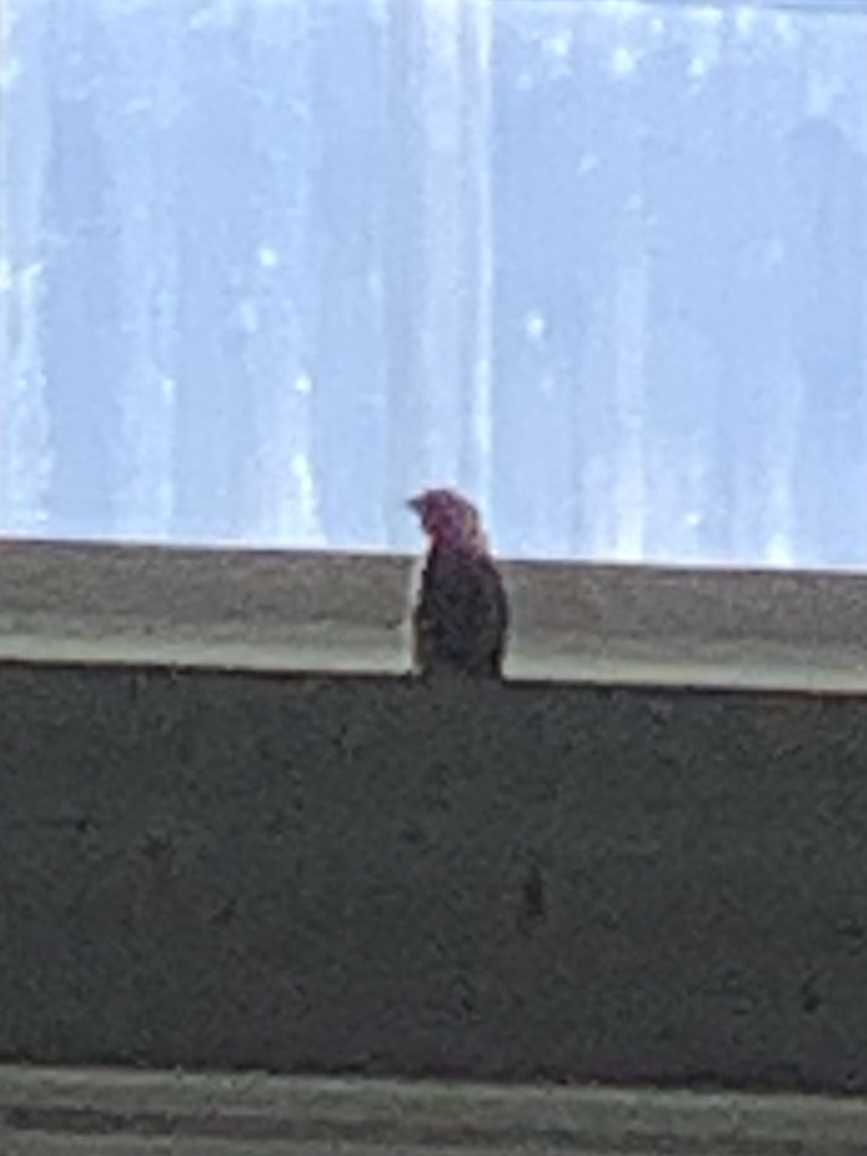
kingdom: Animalia
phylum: Chordata
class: Aves
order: Passeriformes
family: Fringillidae
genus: Haemorhous
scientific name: Haemorhous mexicanus
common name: House finch
